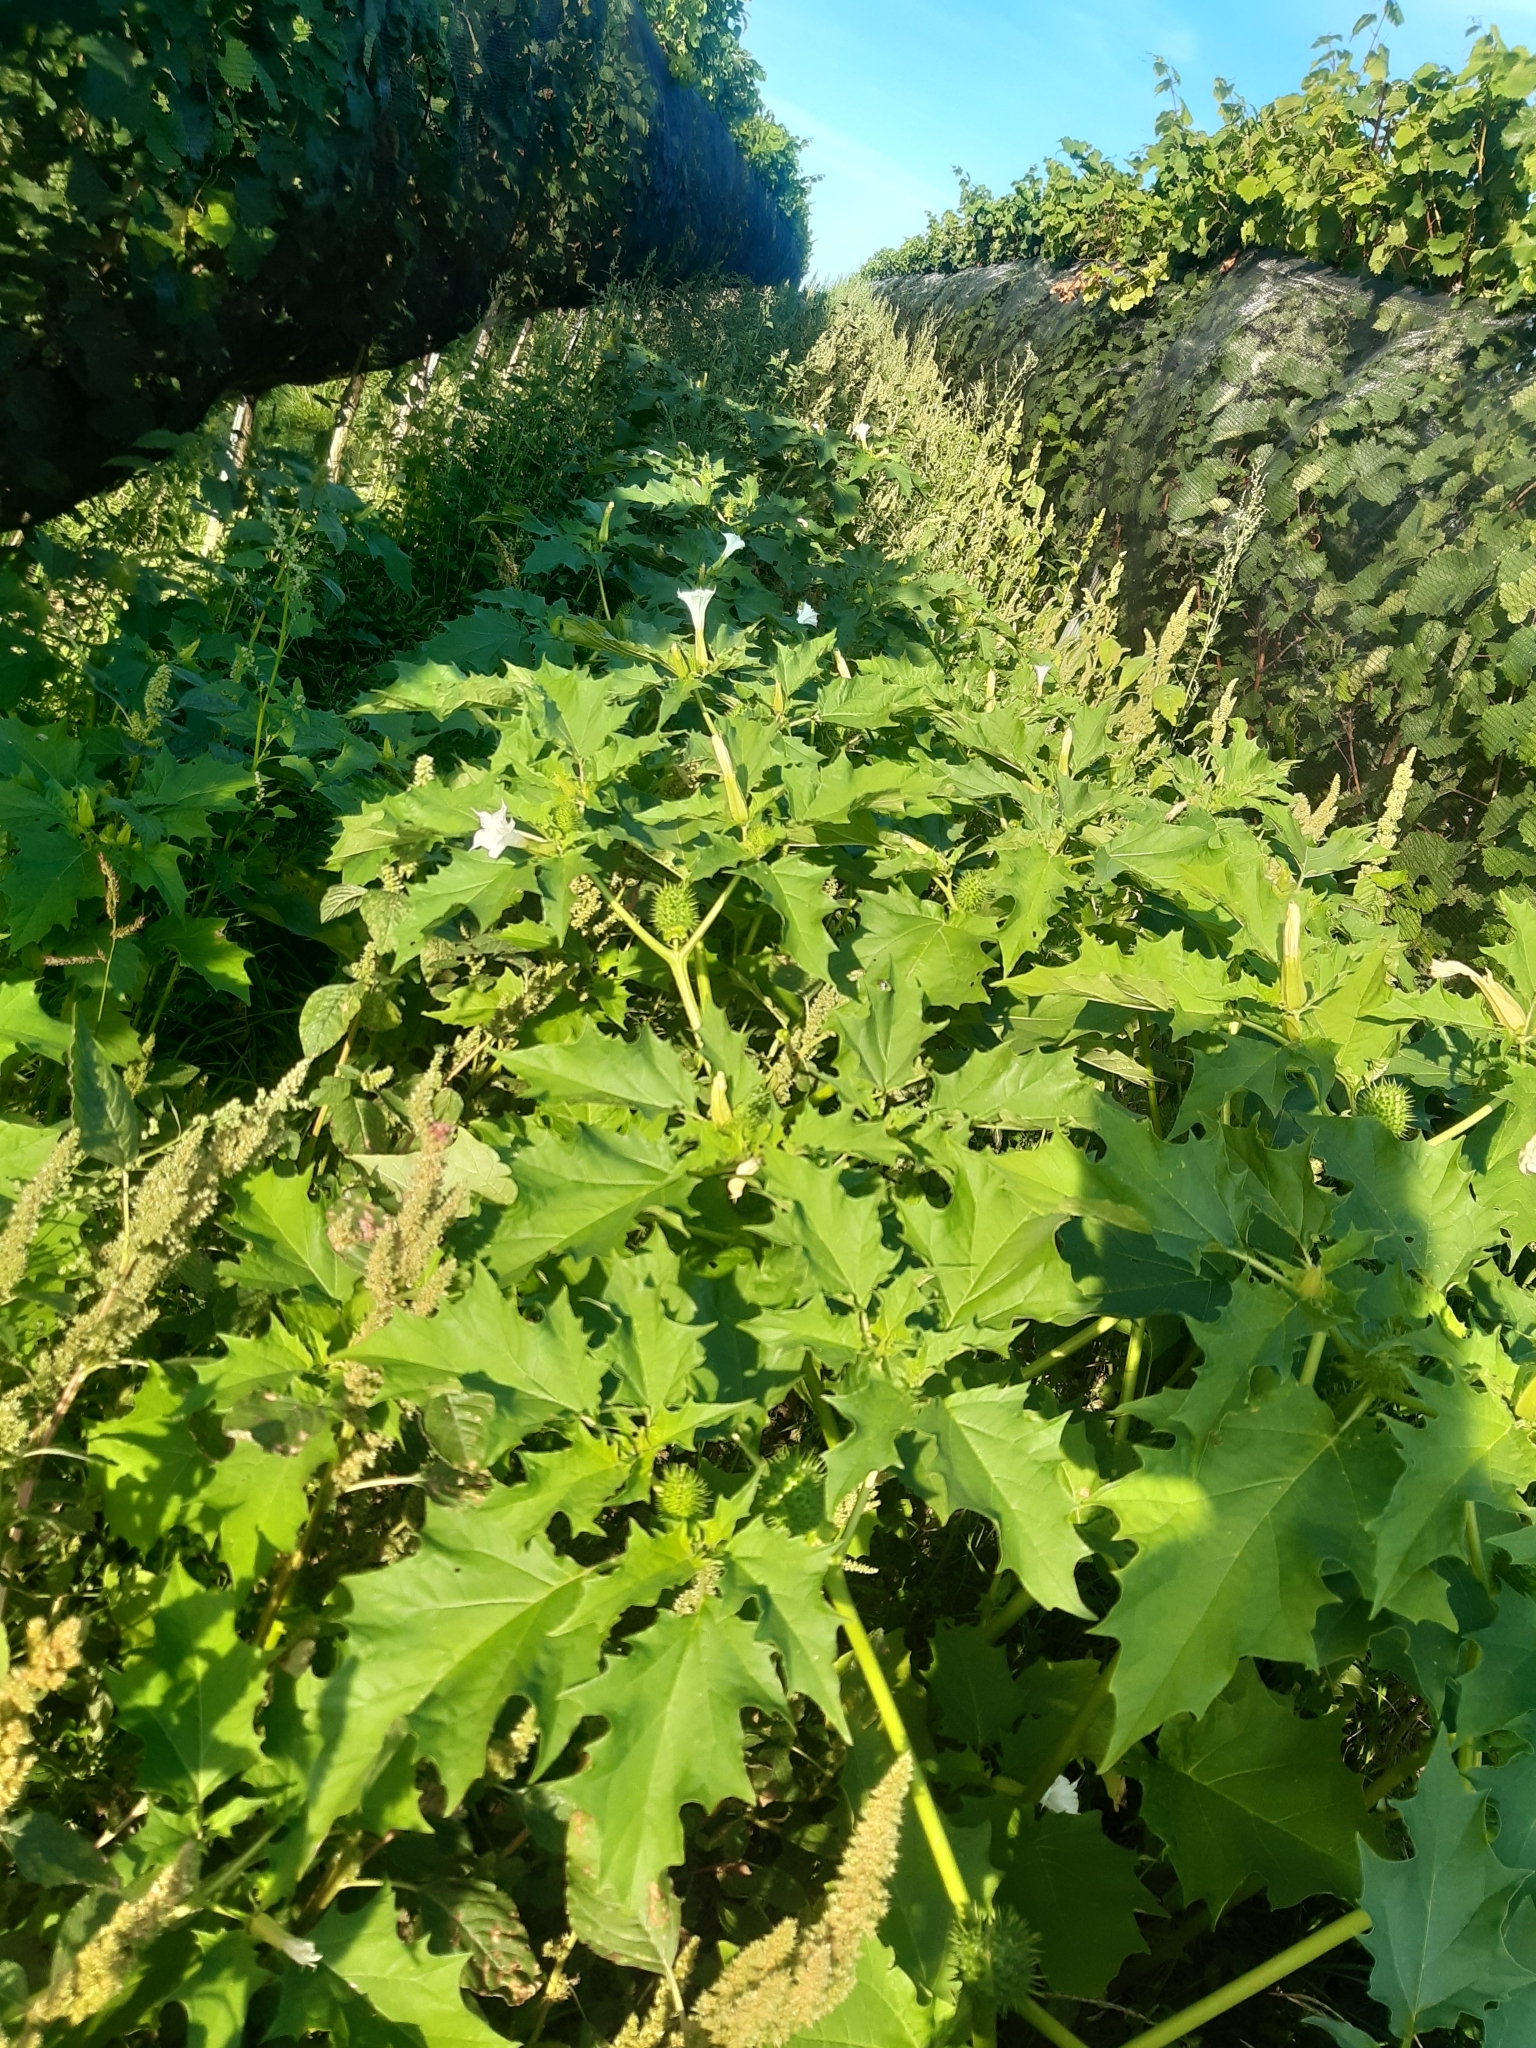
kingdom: Plantae
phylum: Tracheophyta
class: Magnoliopsida
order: Solanales
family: Solanaceae
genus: Datura
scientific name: Datura stramonium
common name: Thorn-apple
